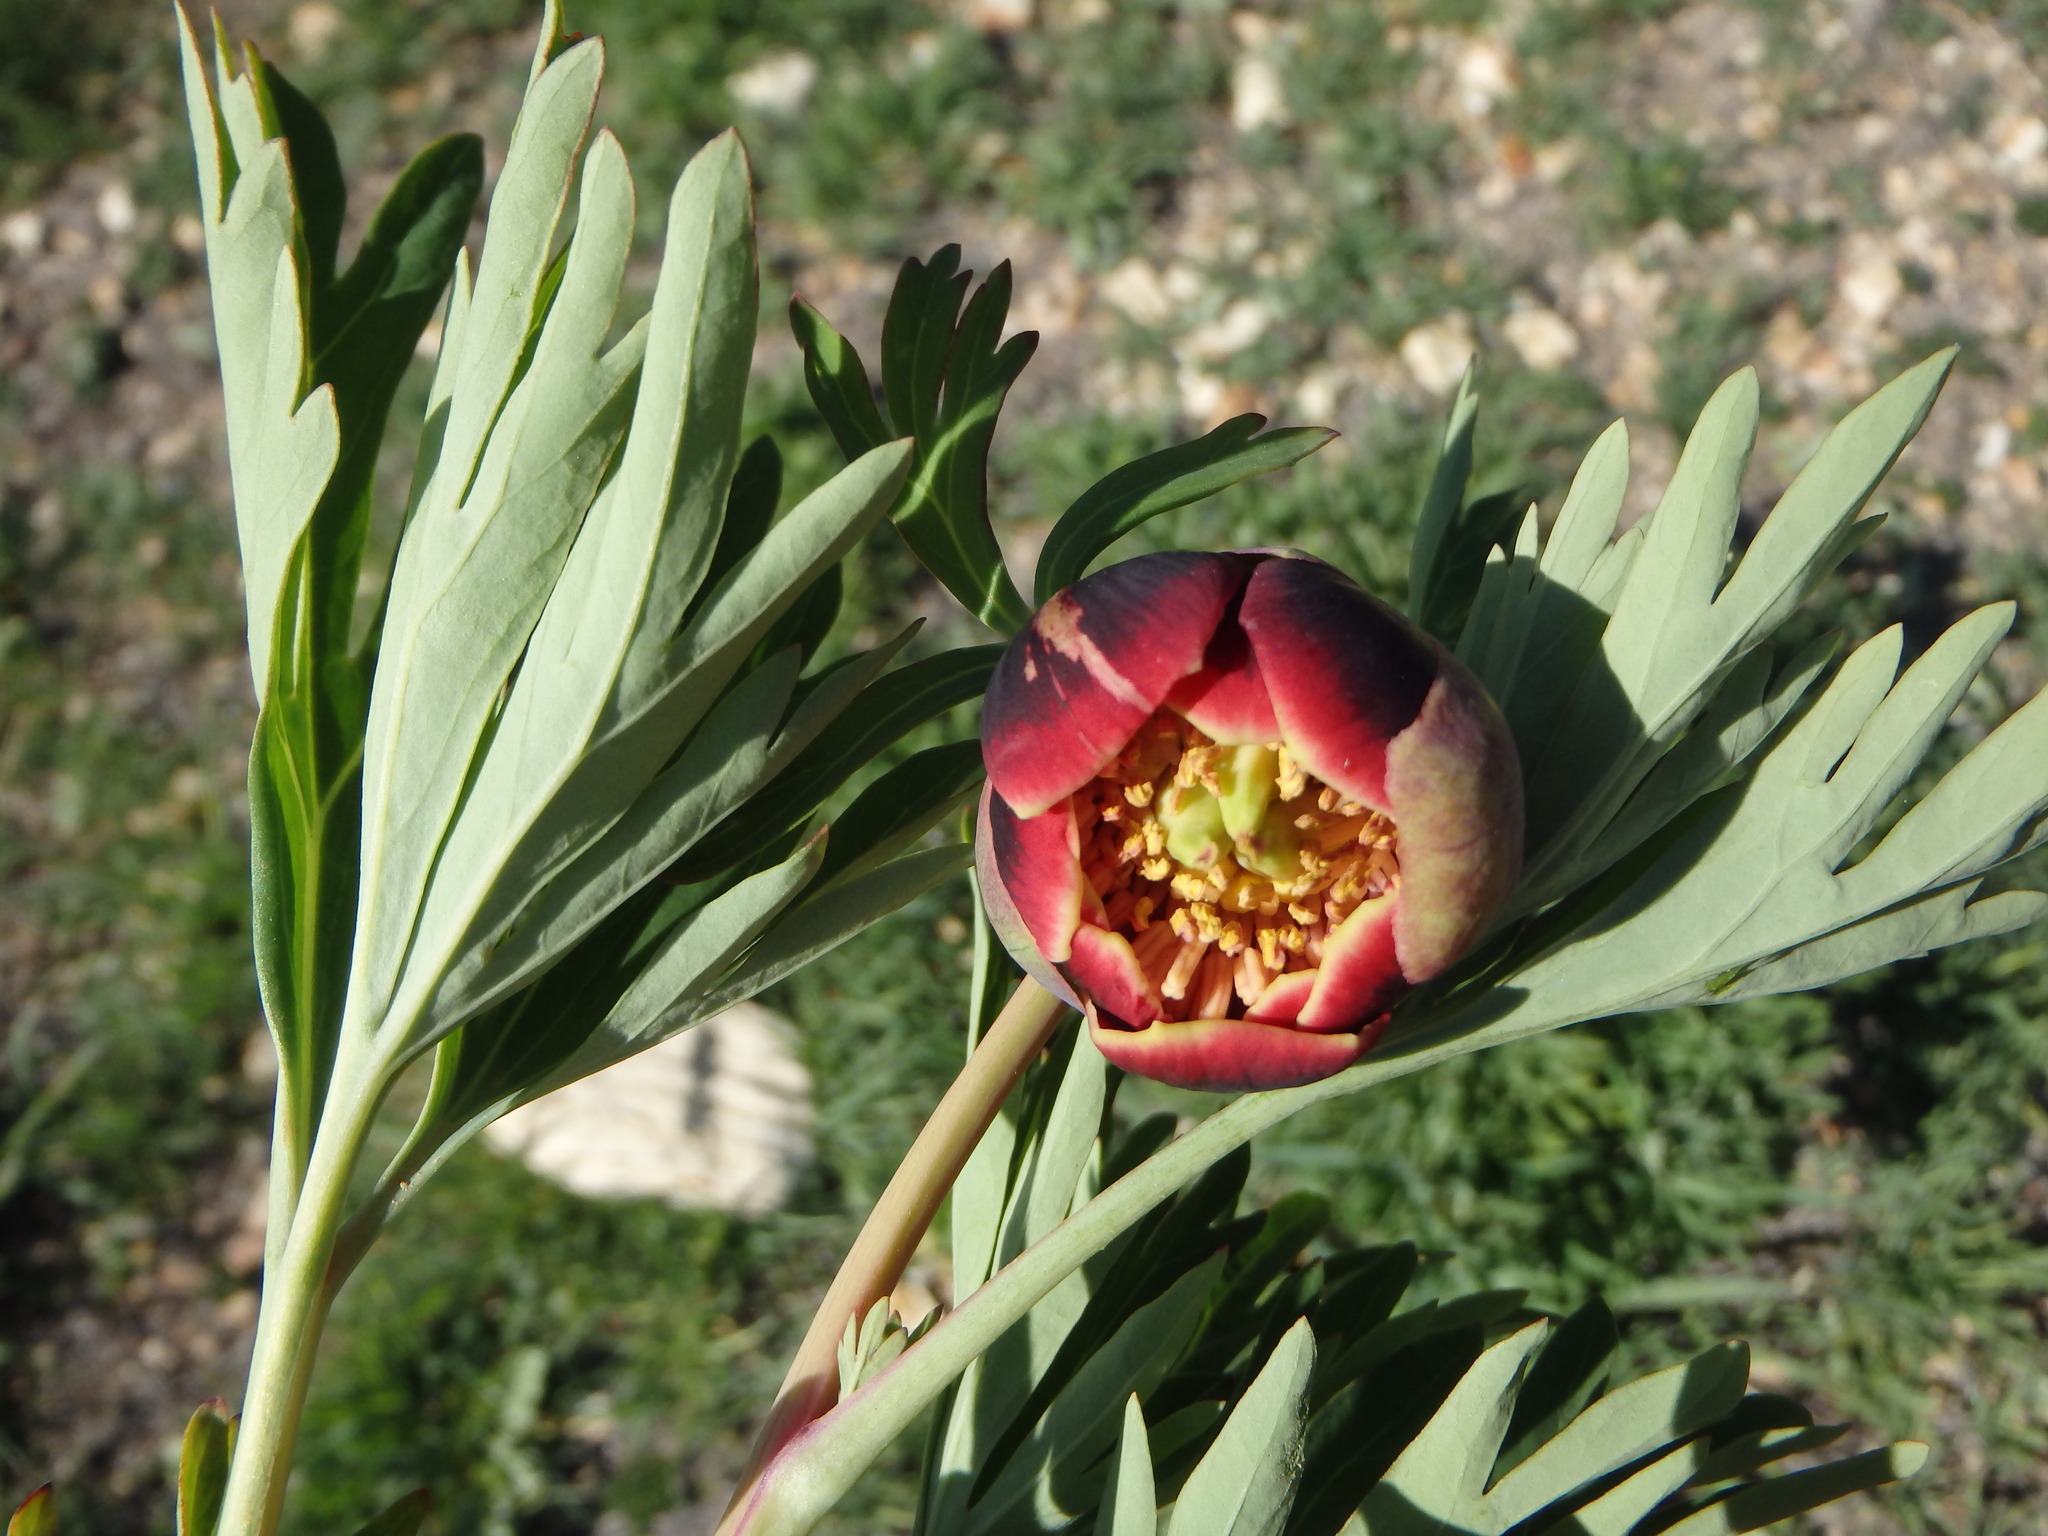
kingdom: Plantae
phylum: Tracheophyta
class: Magnoliopsida
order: Saxifragales
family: Paeoniaceae
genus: Paeonia
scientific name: Paeonia californica
